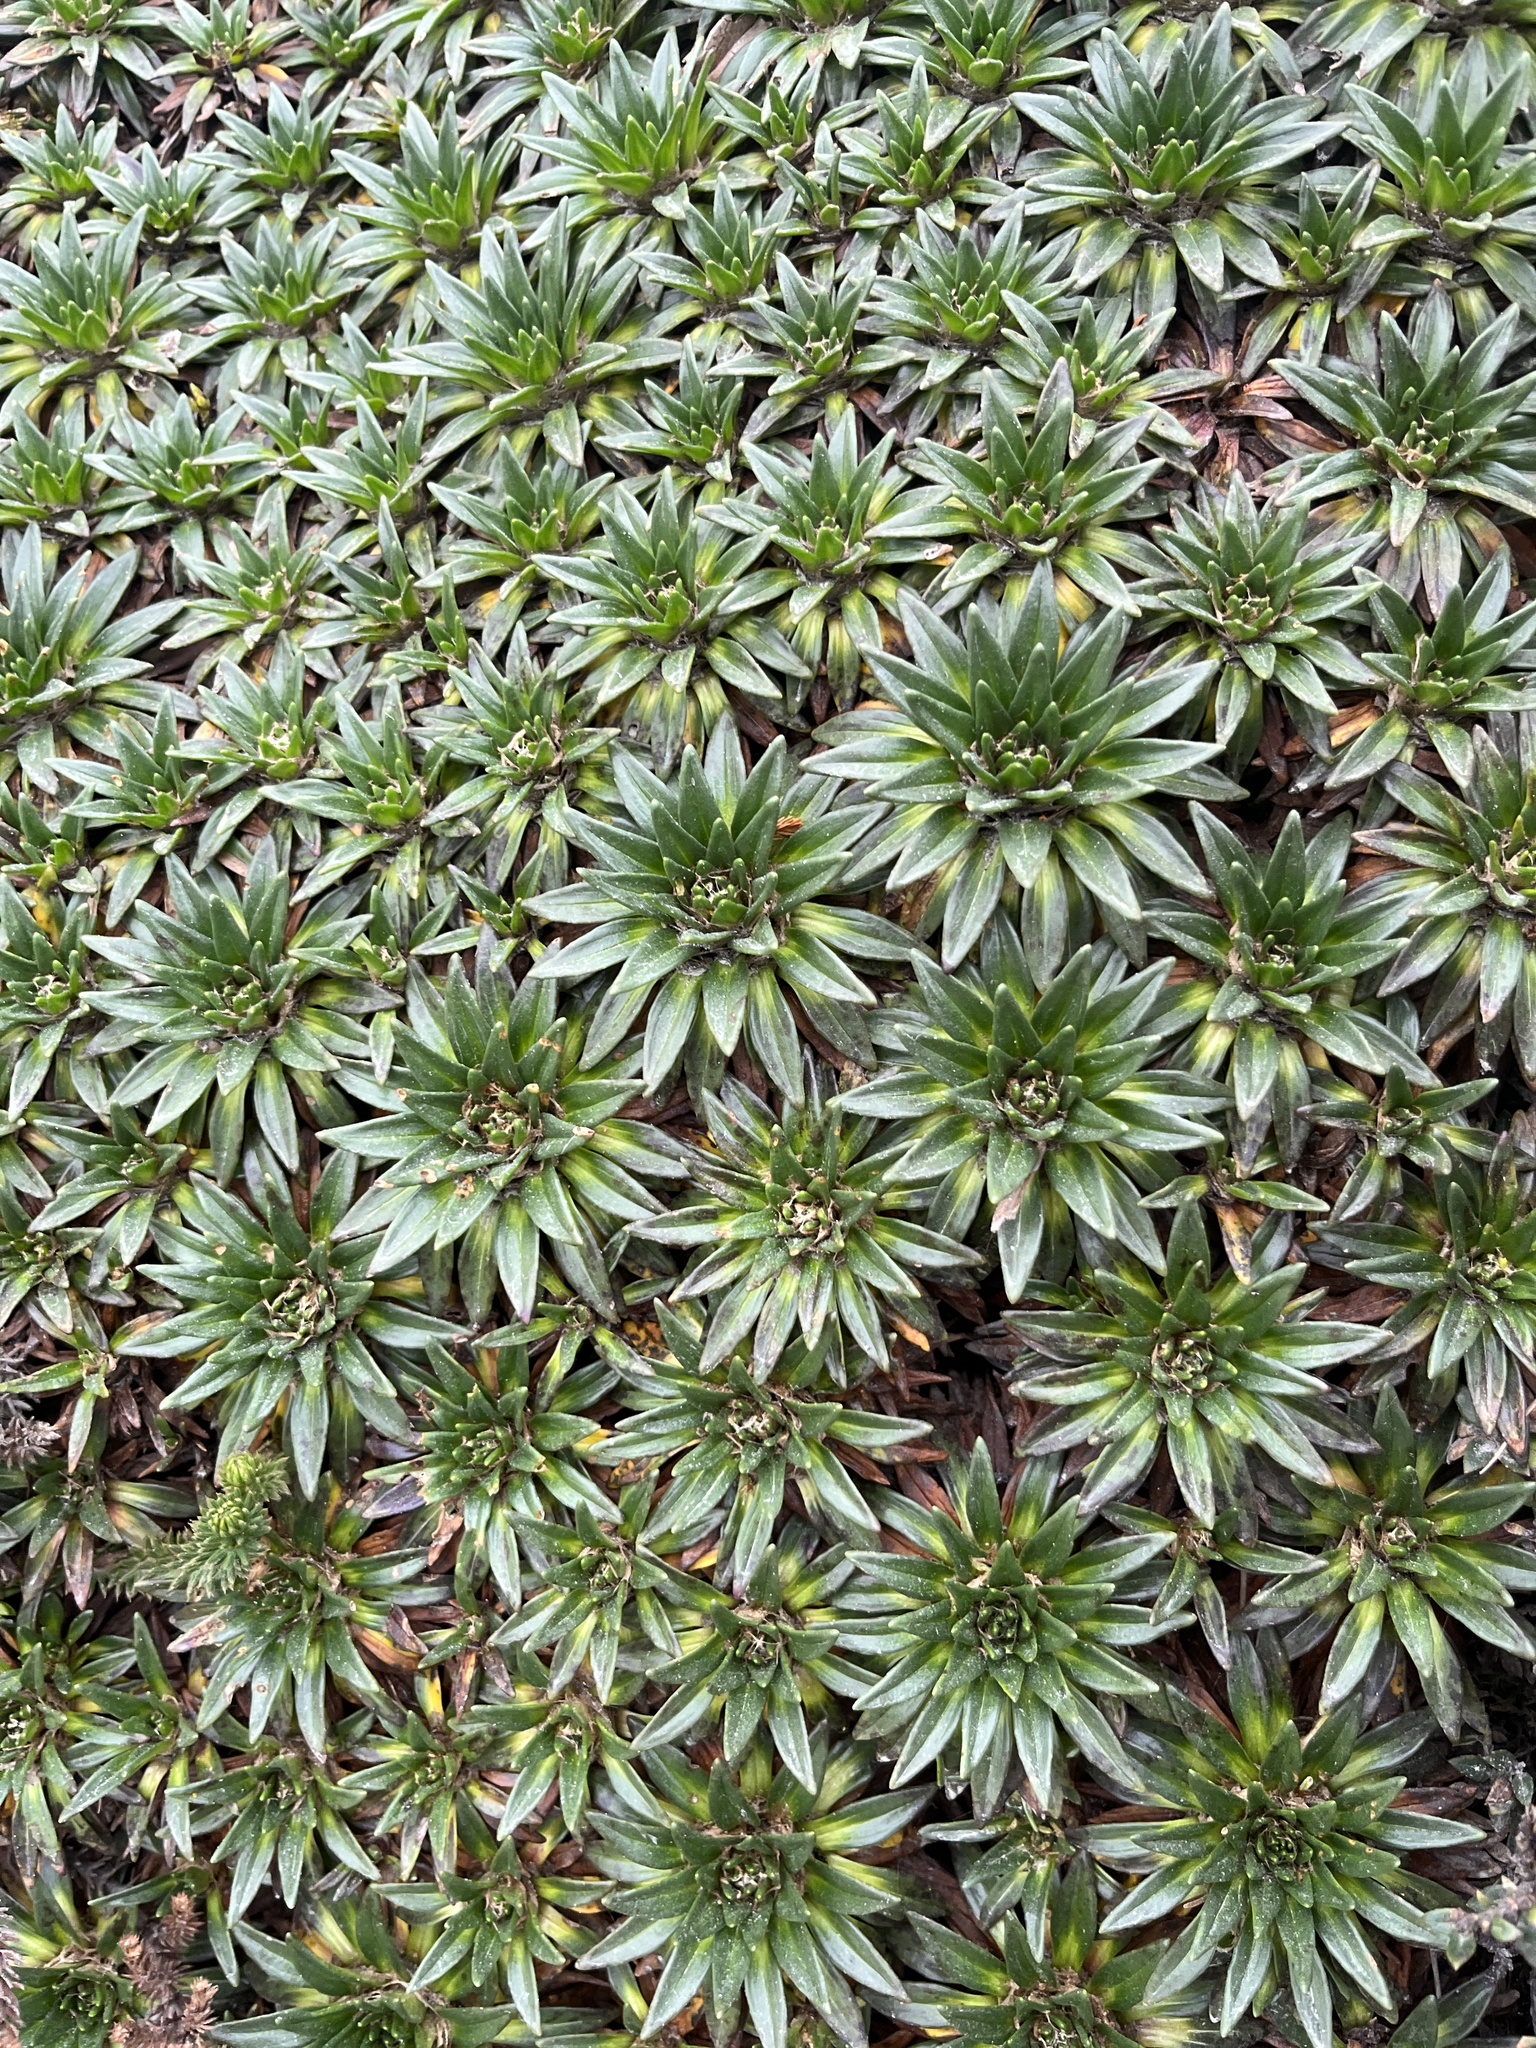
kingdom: Plantae
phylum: Tracheophyta
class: Magnoliopsida
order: Lamiales
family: Plantaginaceae
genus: Plantago
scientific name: Plantago rigida
